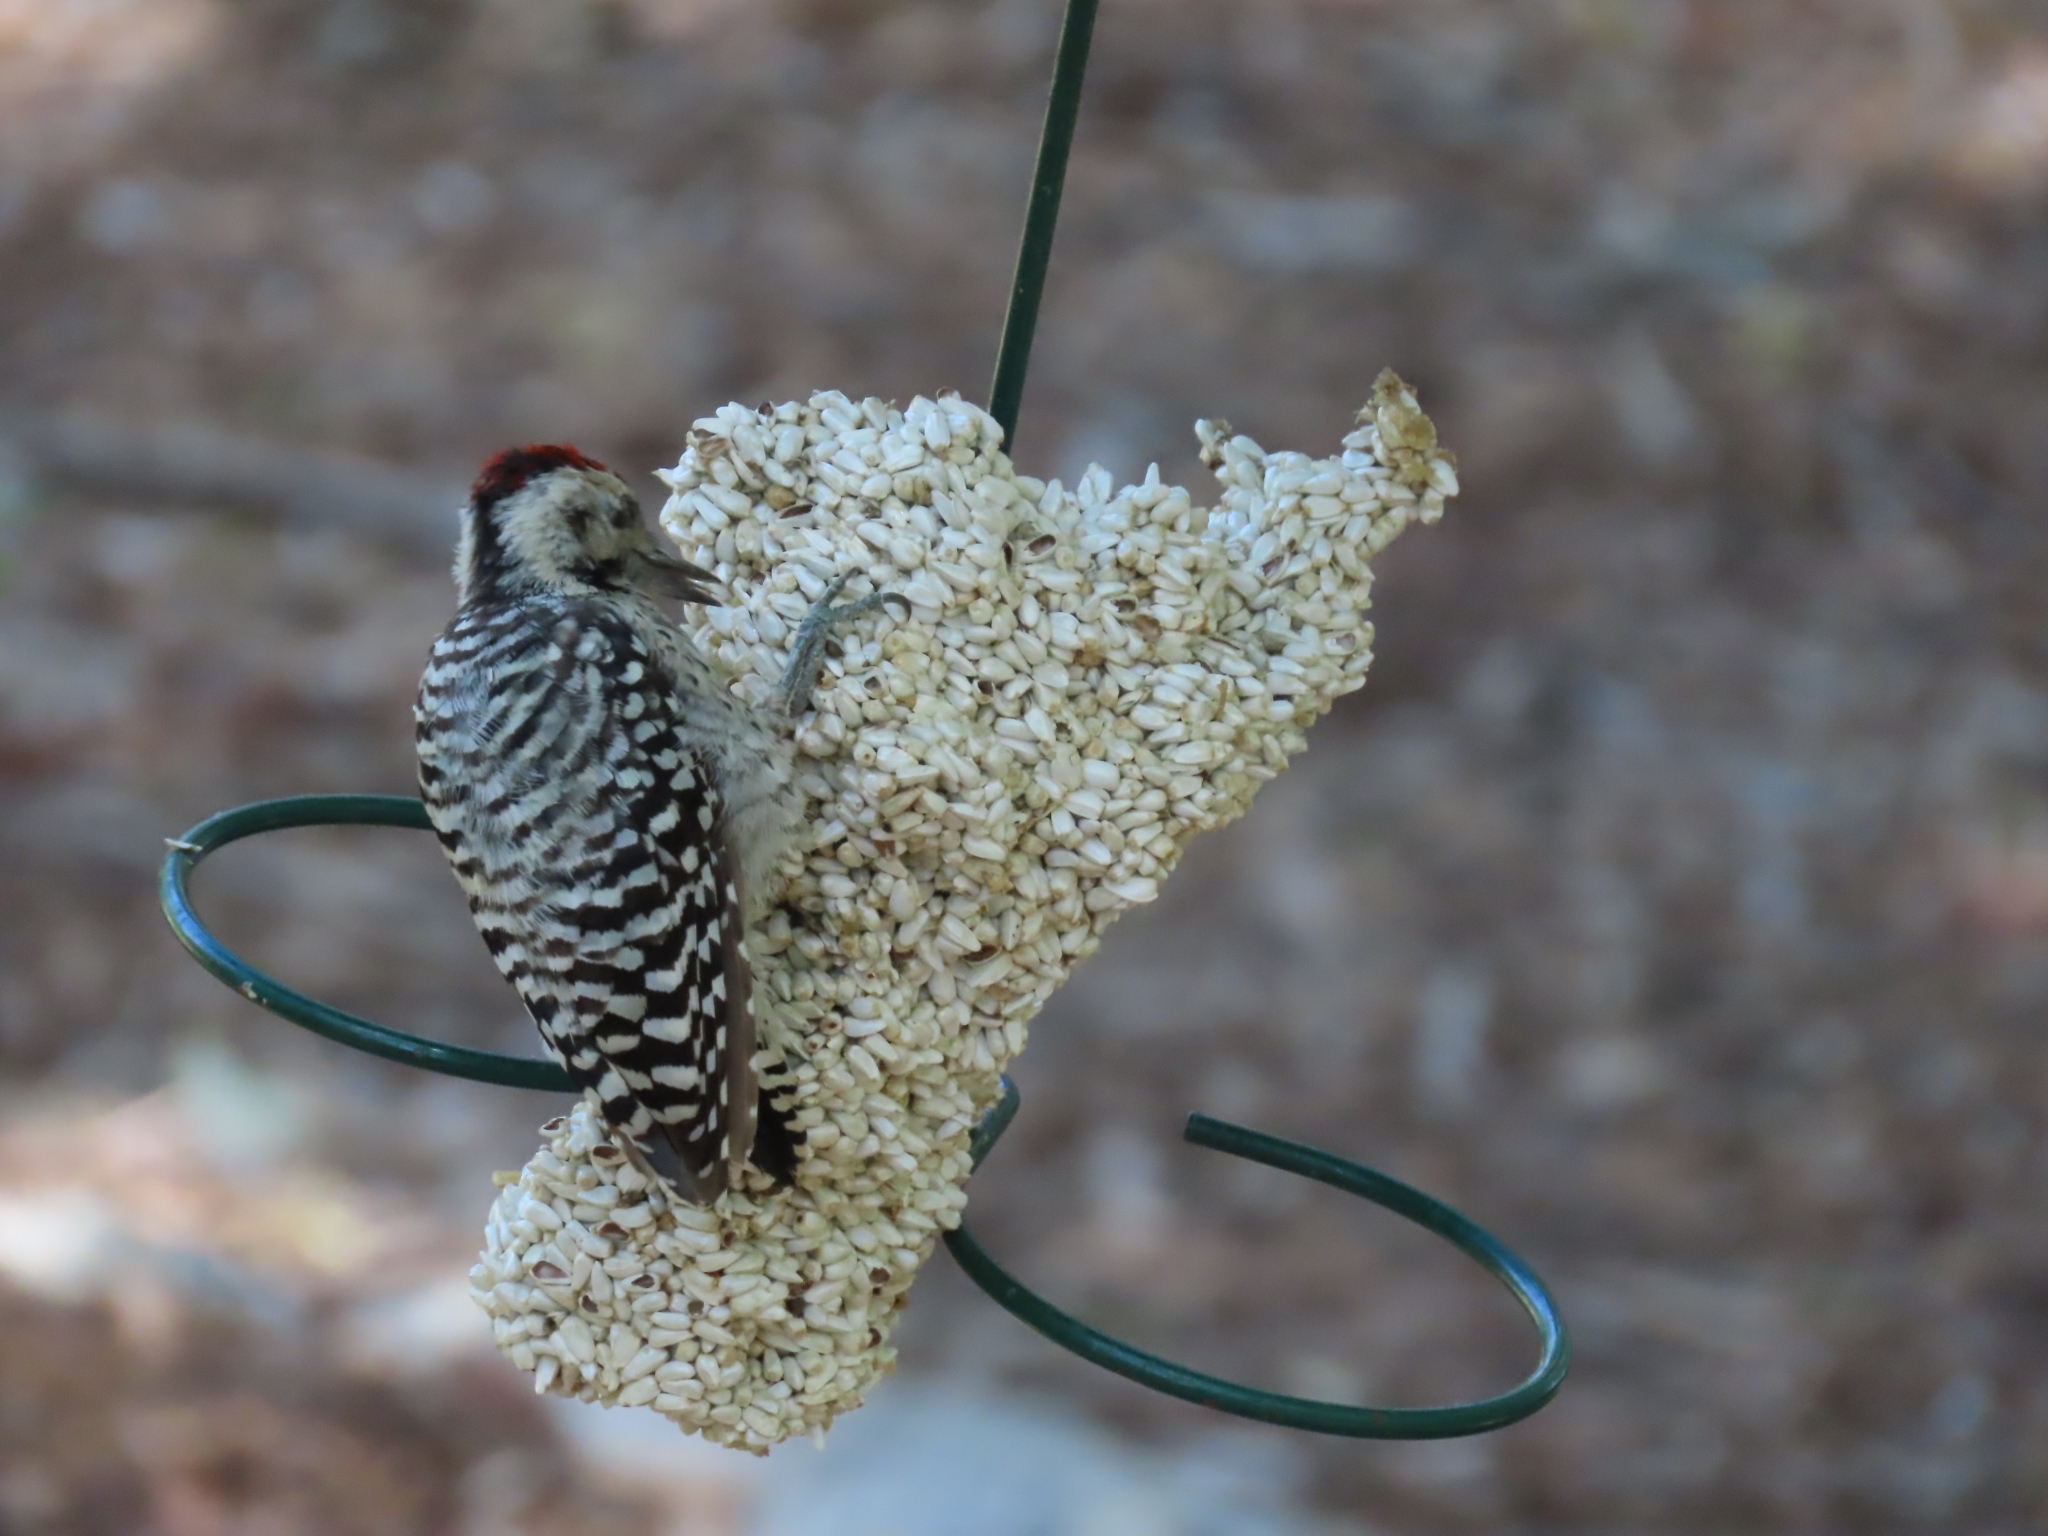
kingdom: Animalia
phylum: Chordata
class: Aves
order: Piciformes
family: Picidae
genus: Dryobates
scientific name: Dryobates scalaris
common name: Ladder-backed woodpecker
